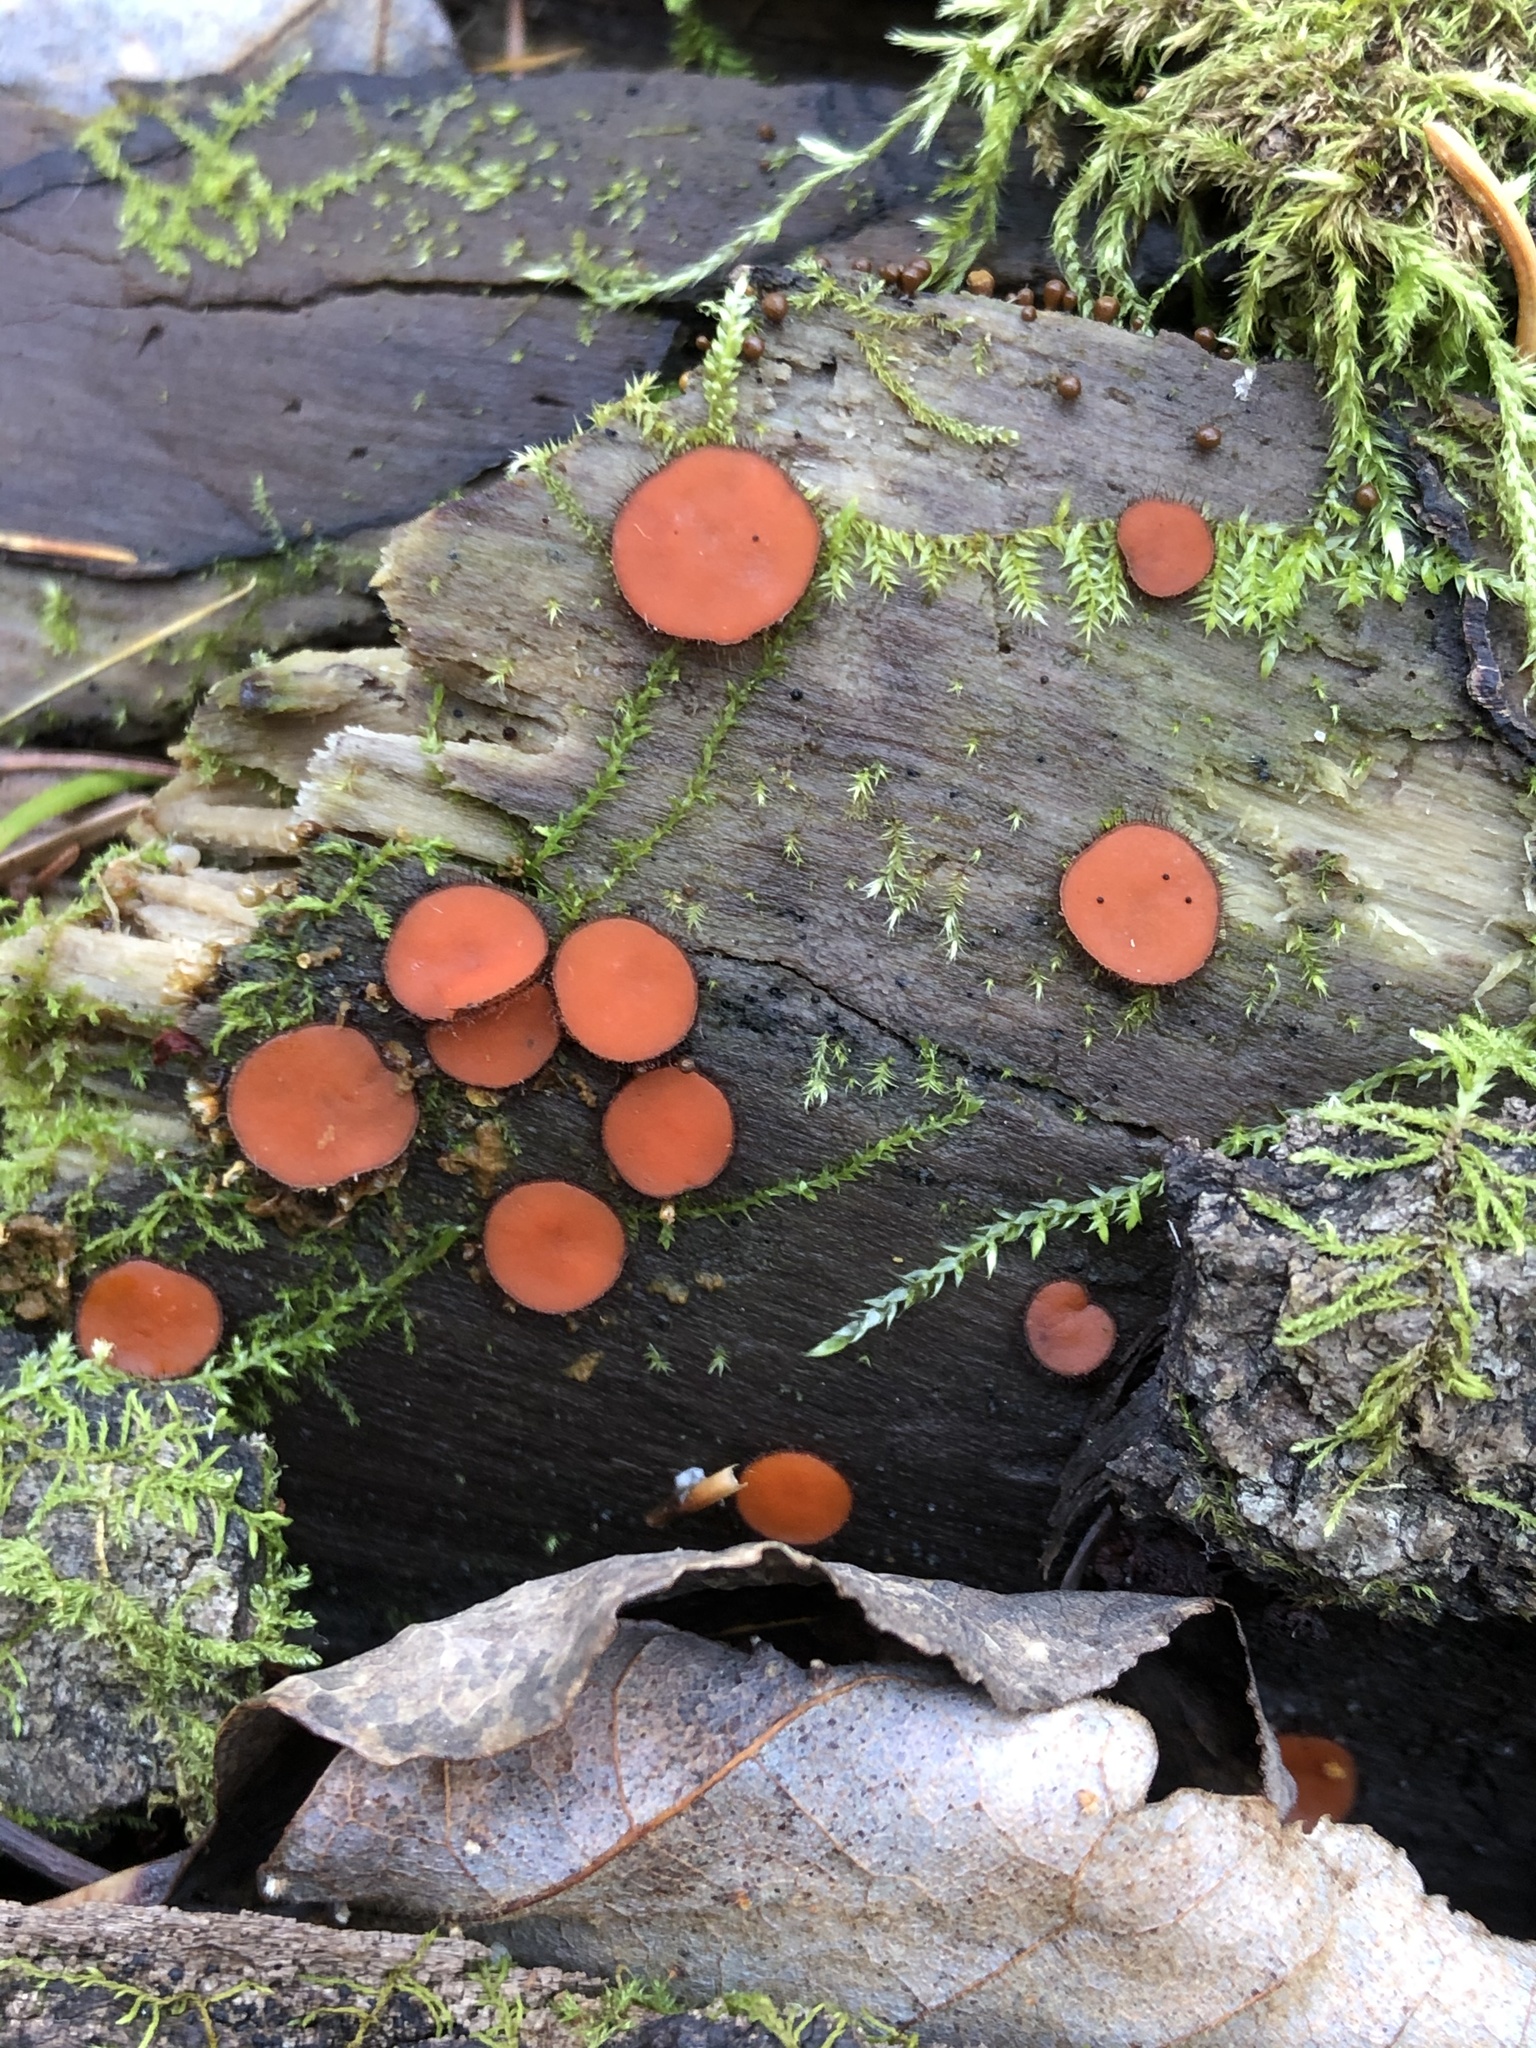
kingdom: Fungi
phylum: Ascomycota
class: Pezizomycetes
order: Pezizales
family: Pyronemataceae
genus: Scutellinia
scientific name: Scutellinia
